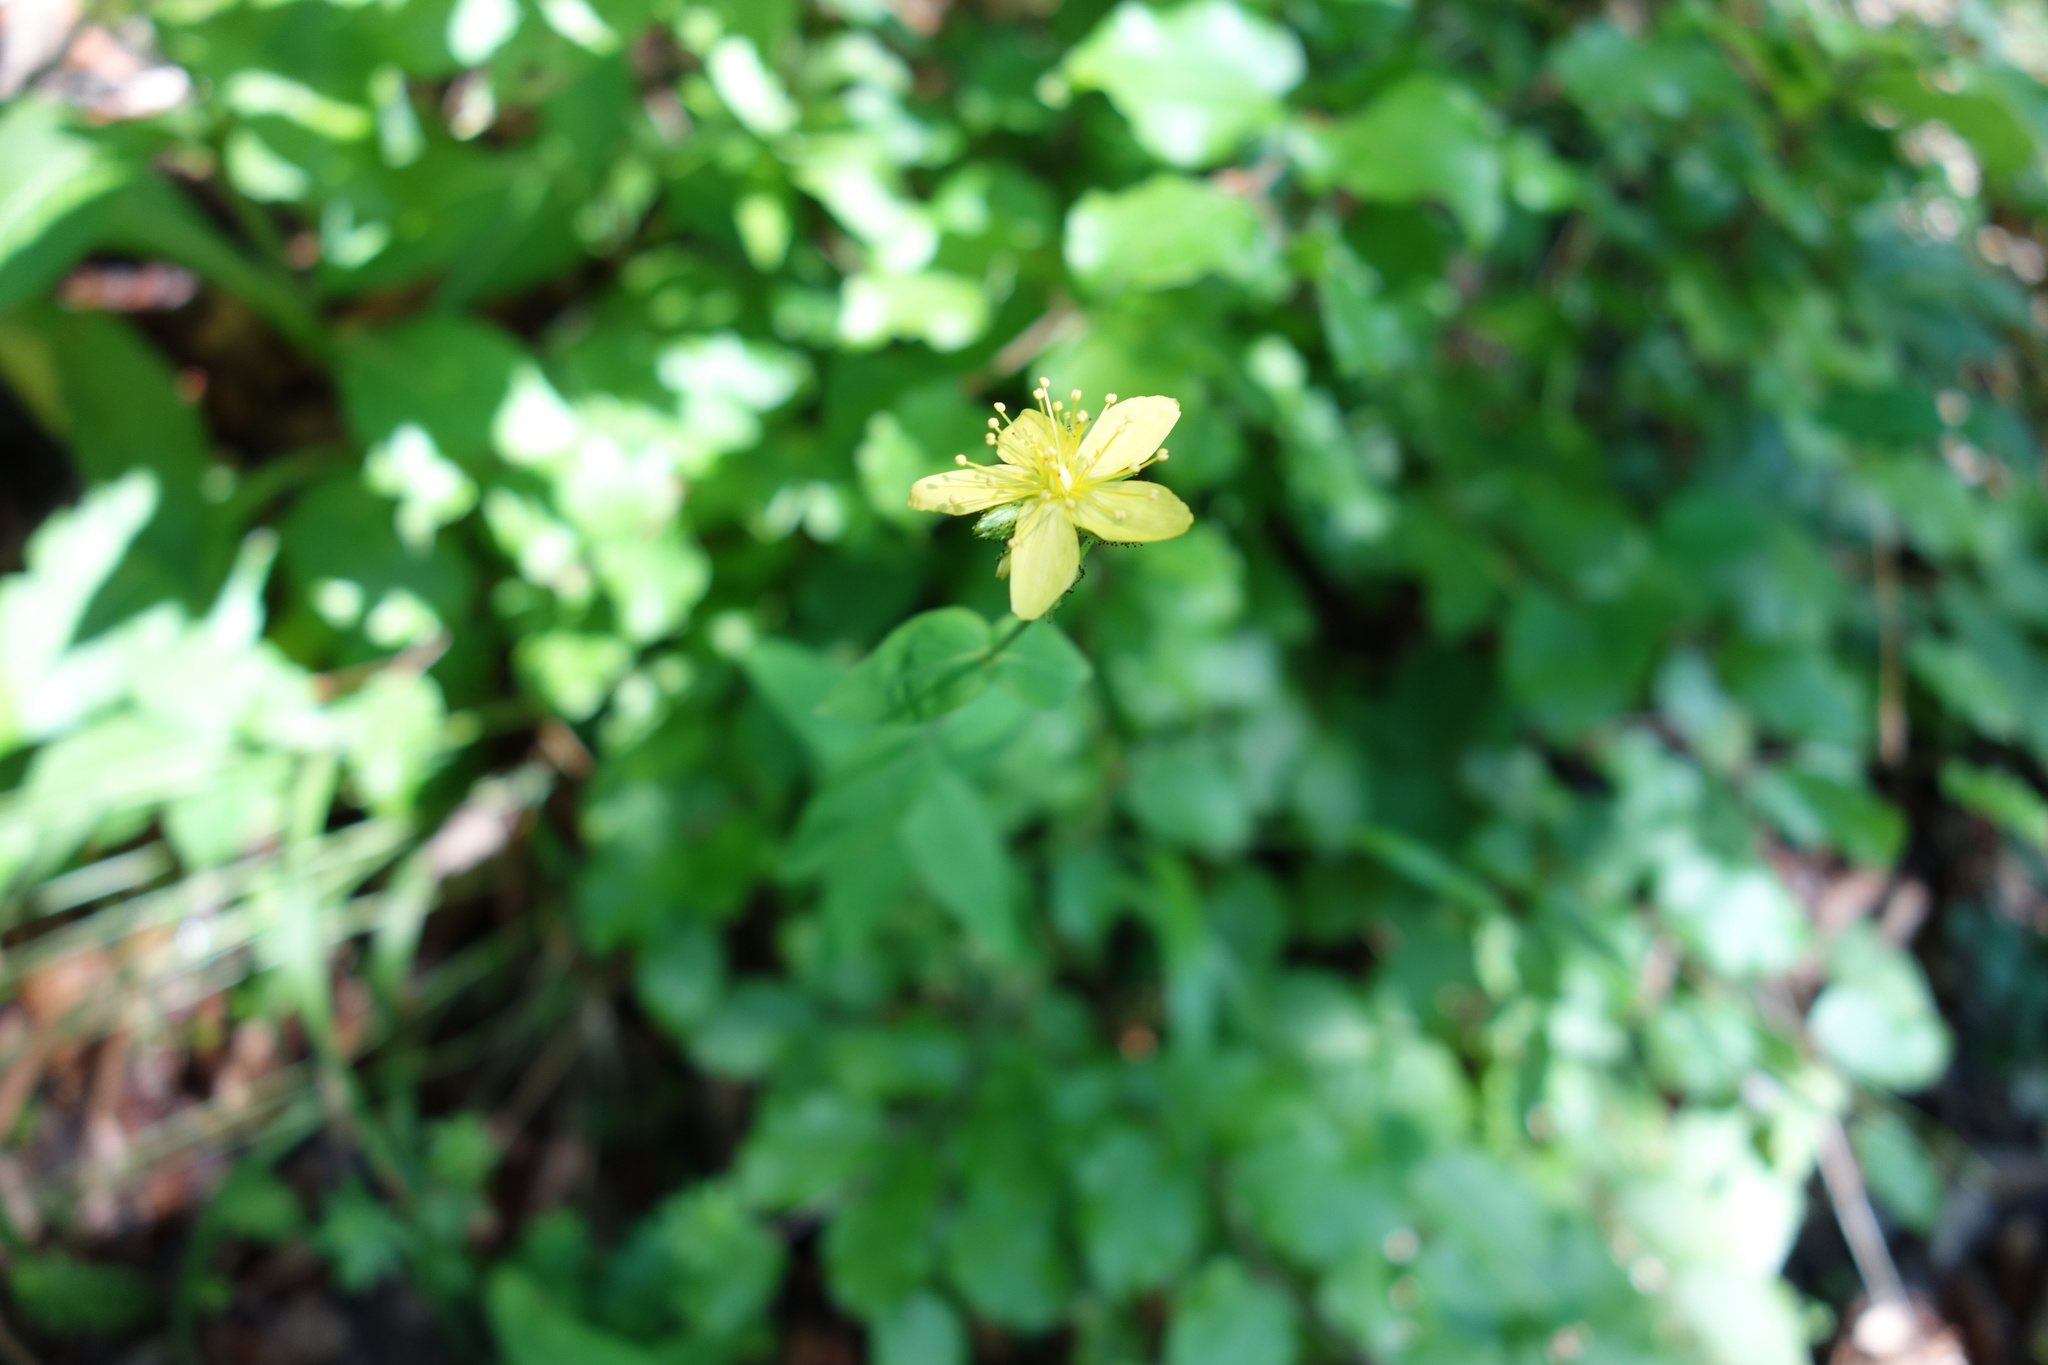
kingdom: Plantae
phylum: Tracheophyta
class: Magnoliopsida
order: Malpighiales
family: Hypericaceae
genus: Hypericum
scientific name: Hypericum montanum
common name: Pale st. john's-wort
